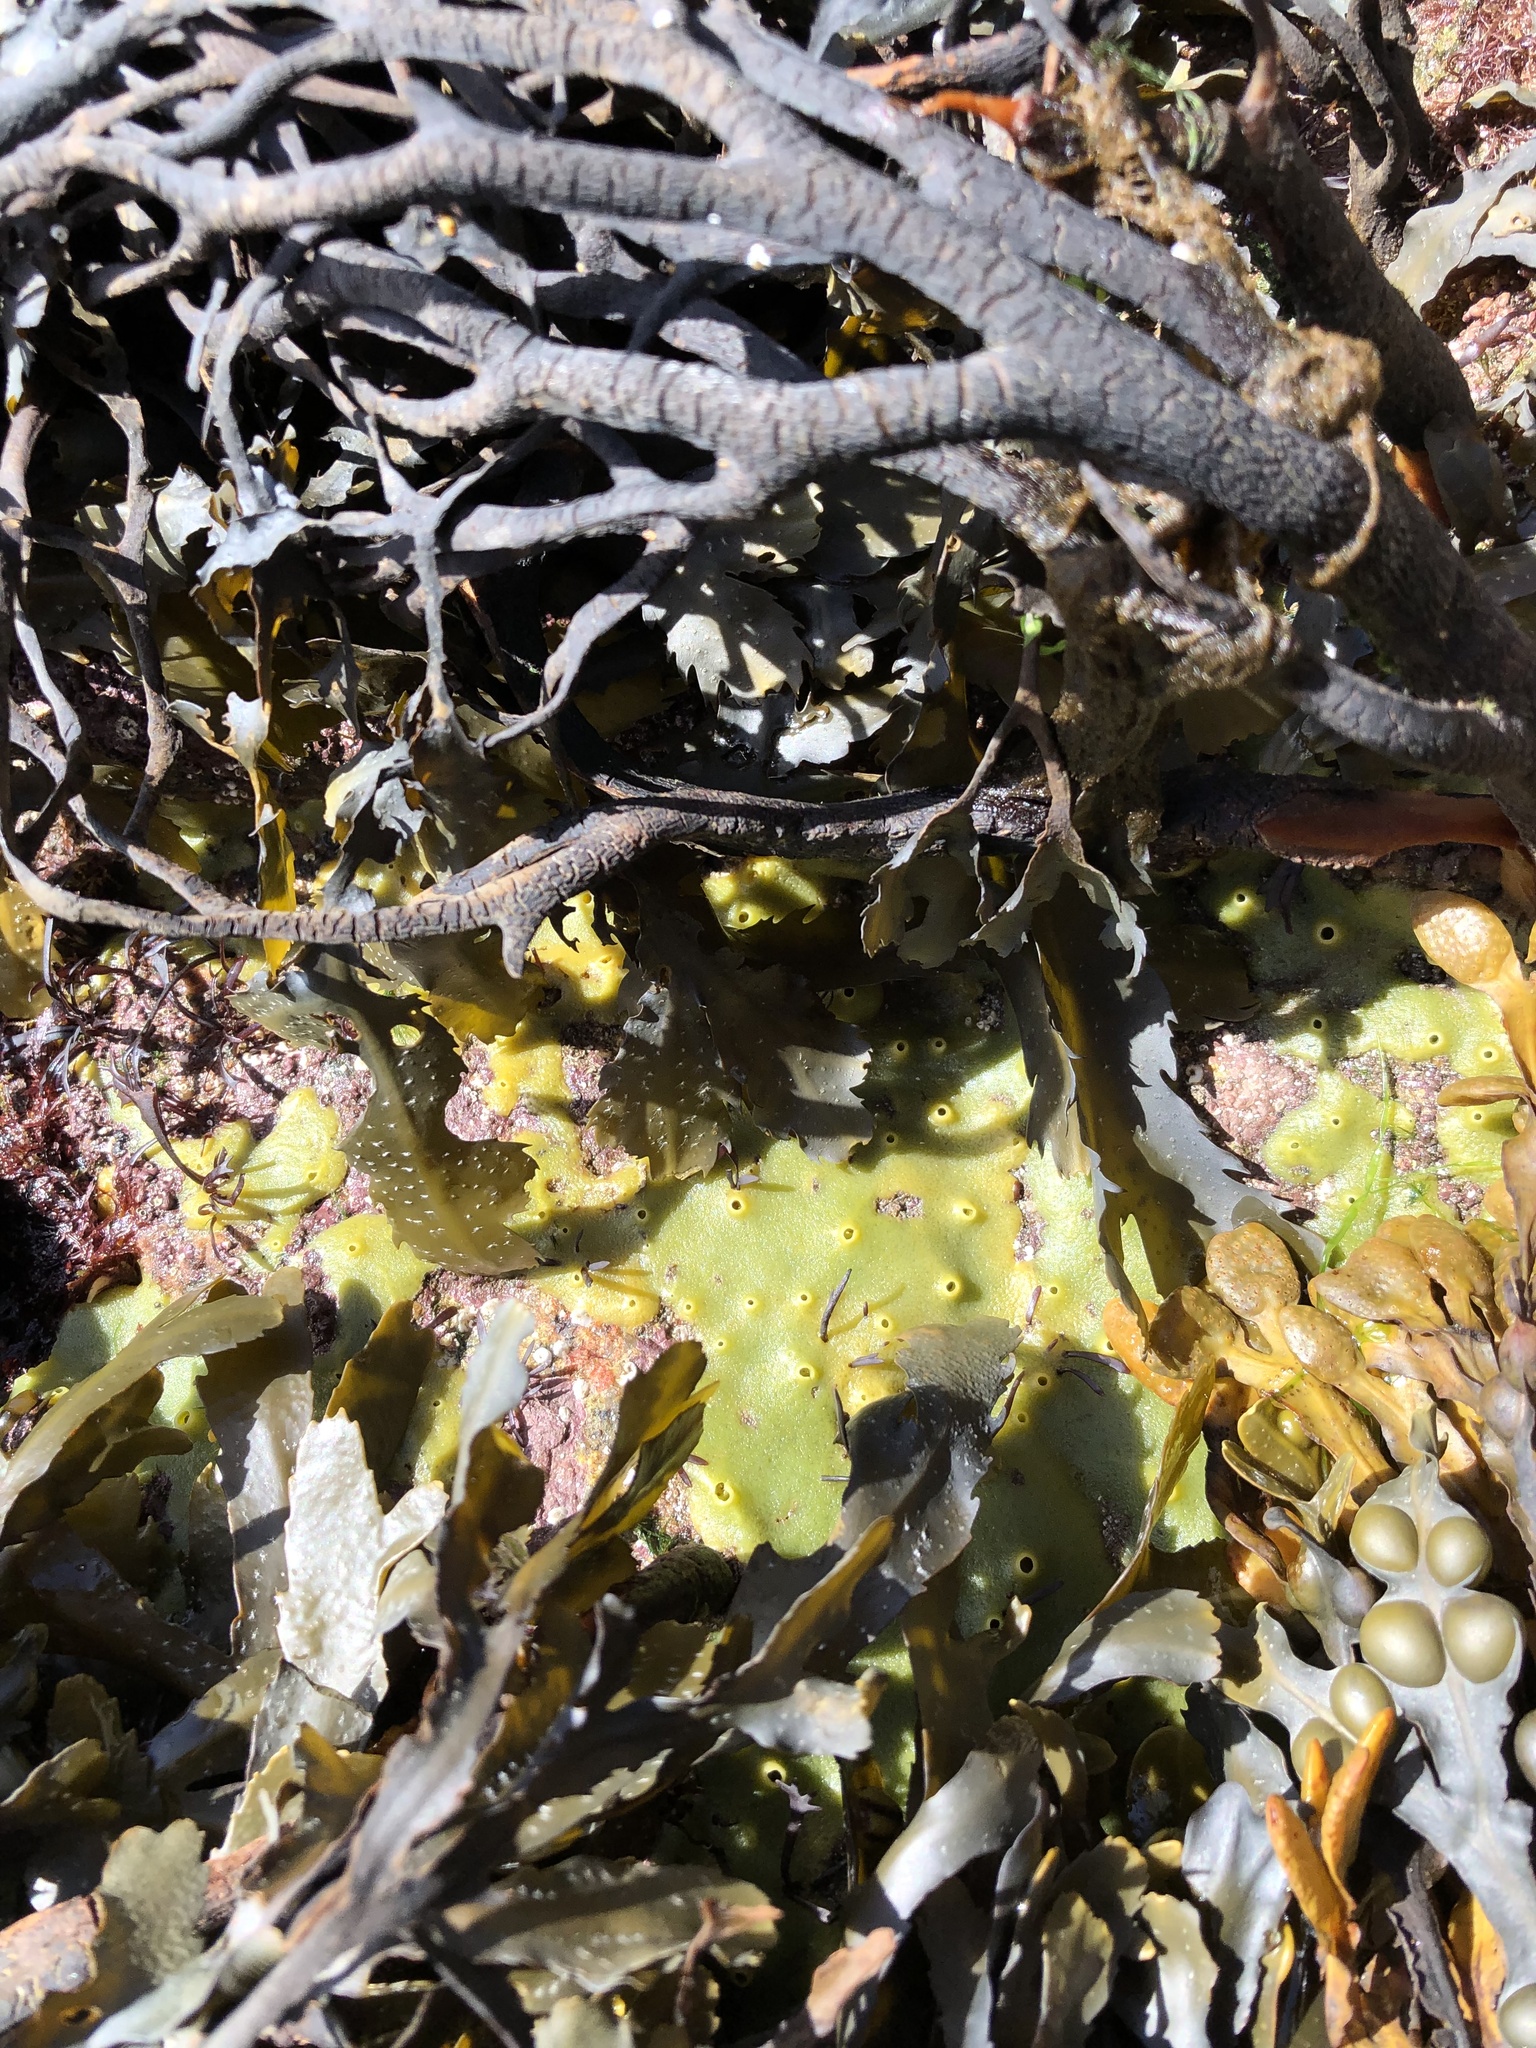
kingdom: Animalia
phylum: Porifera
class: Demospongiae
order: Suberitida
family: Halichondriidae
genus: Halichondria
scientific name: Halichondria panicea
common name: Breadcrumb sponge
